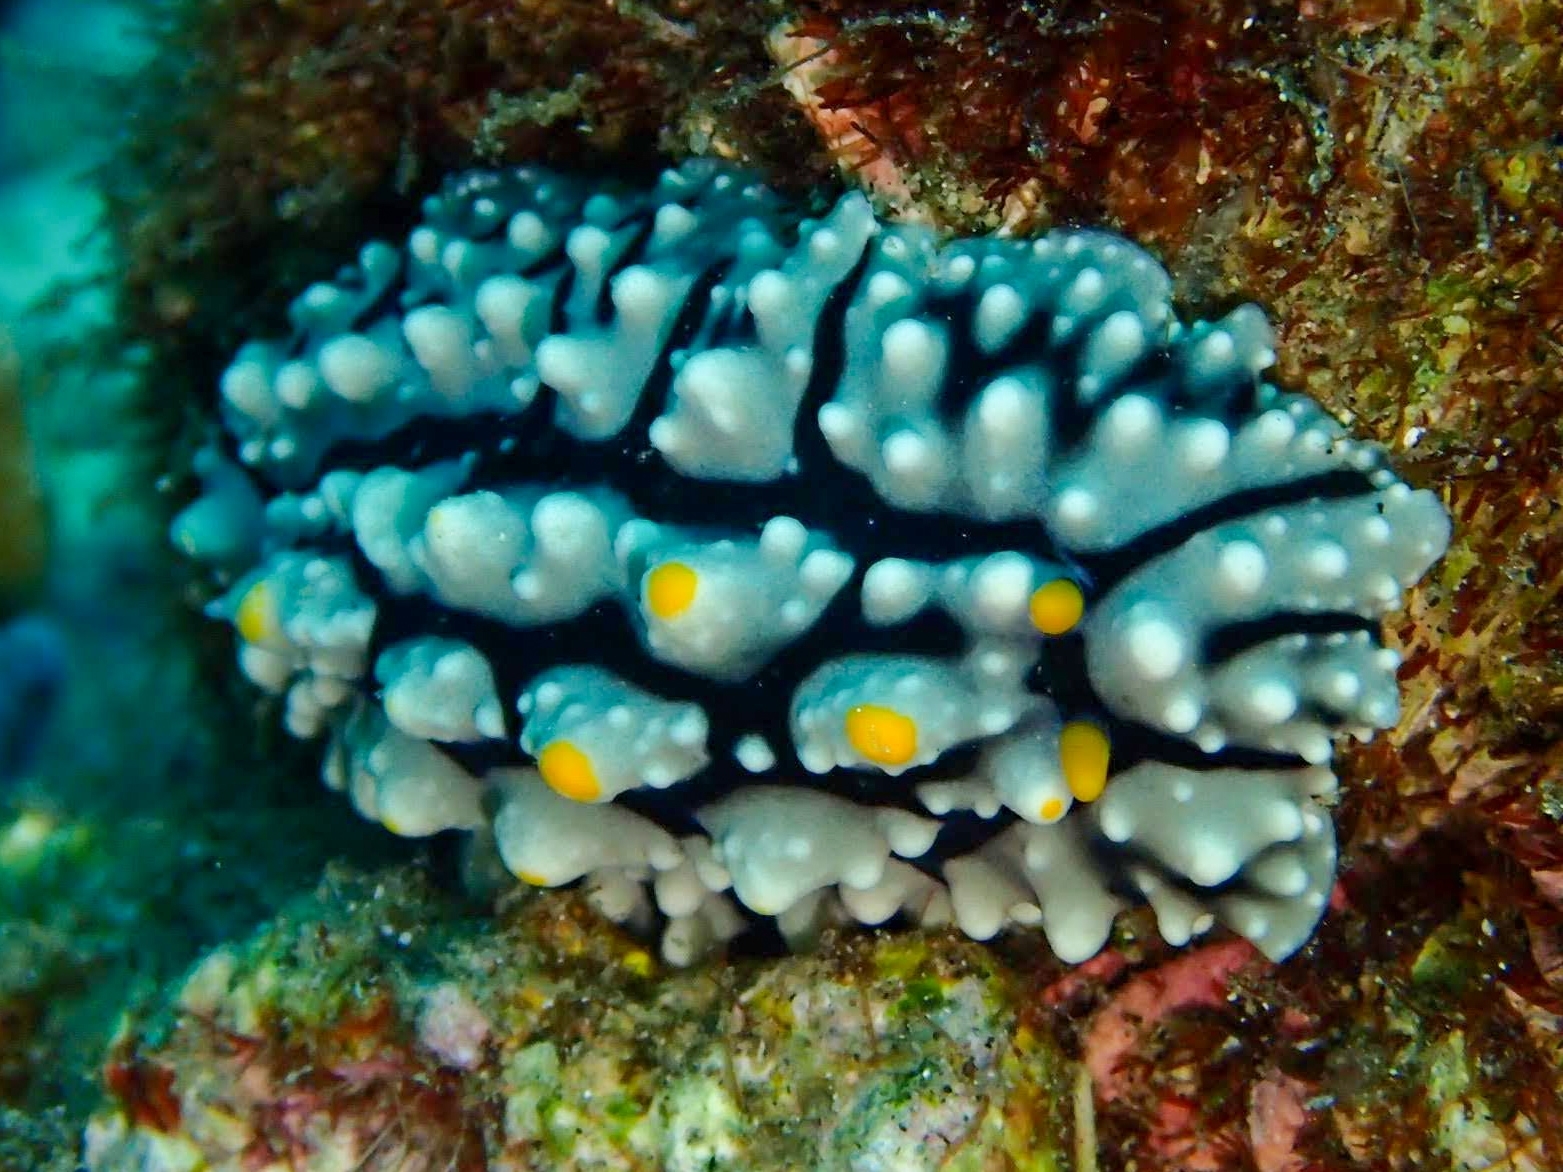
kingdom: Animalia
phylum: Mollusca
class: Gastropoda
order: Nudibranchia
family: Phyllidiidae
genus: Phyllidia
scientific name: Phyllidia elegans
